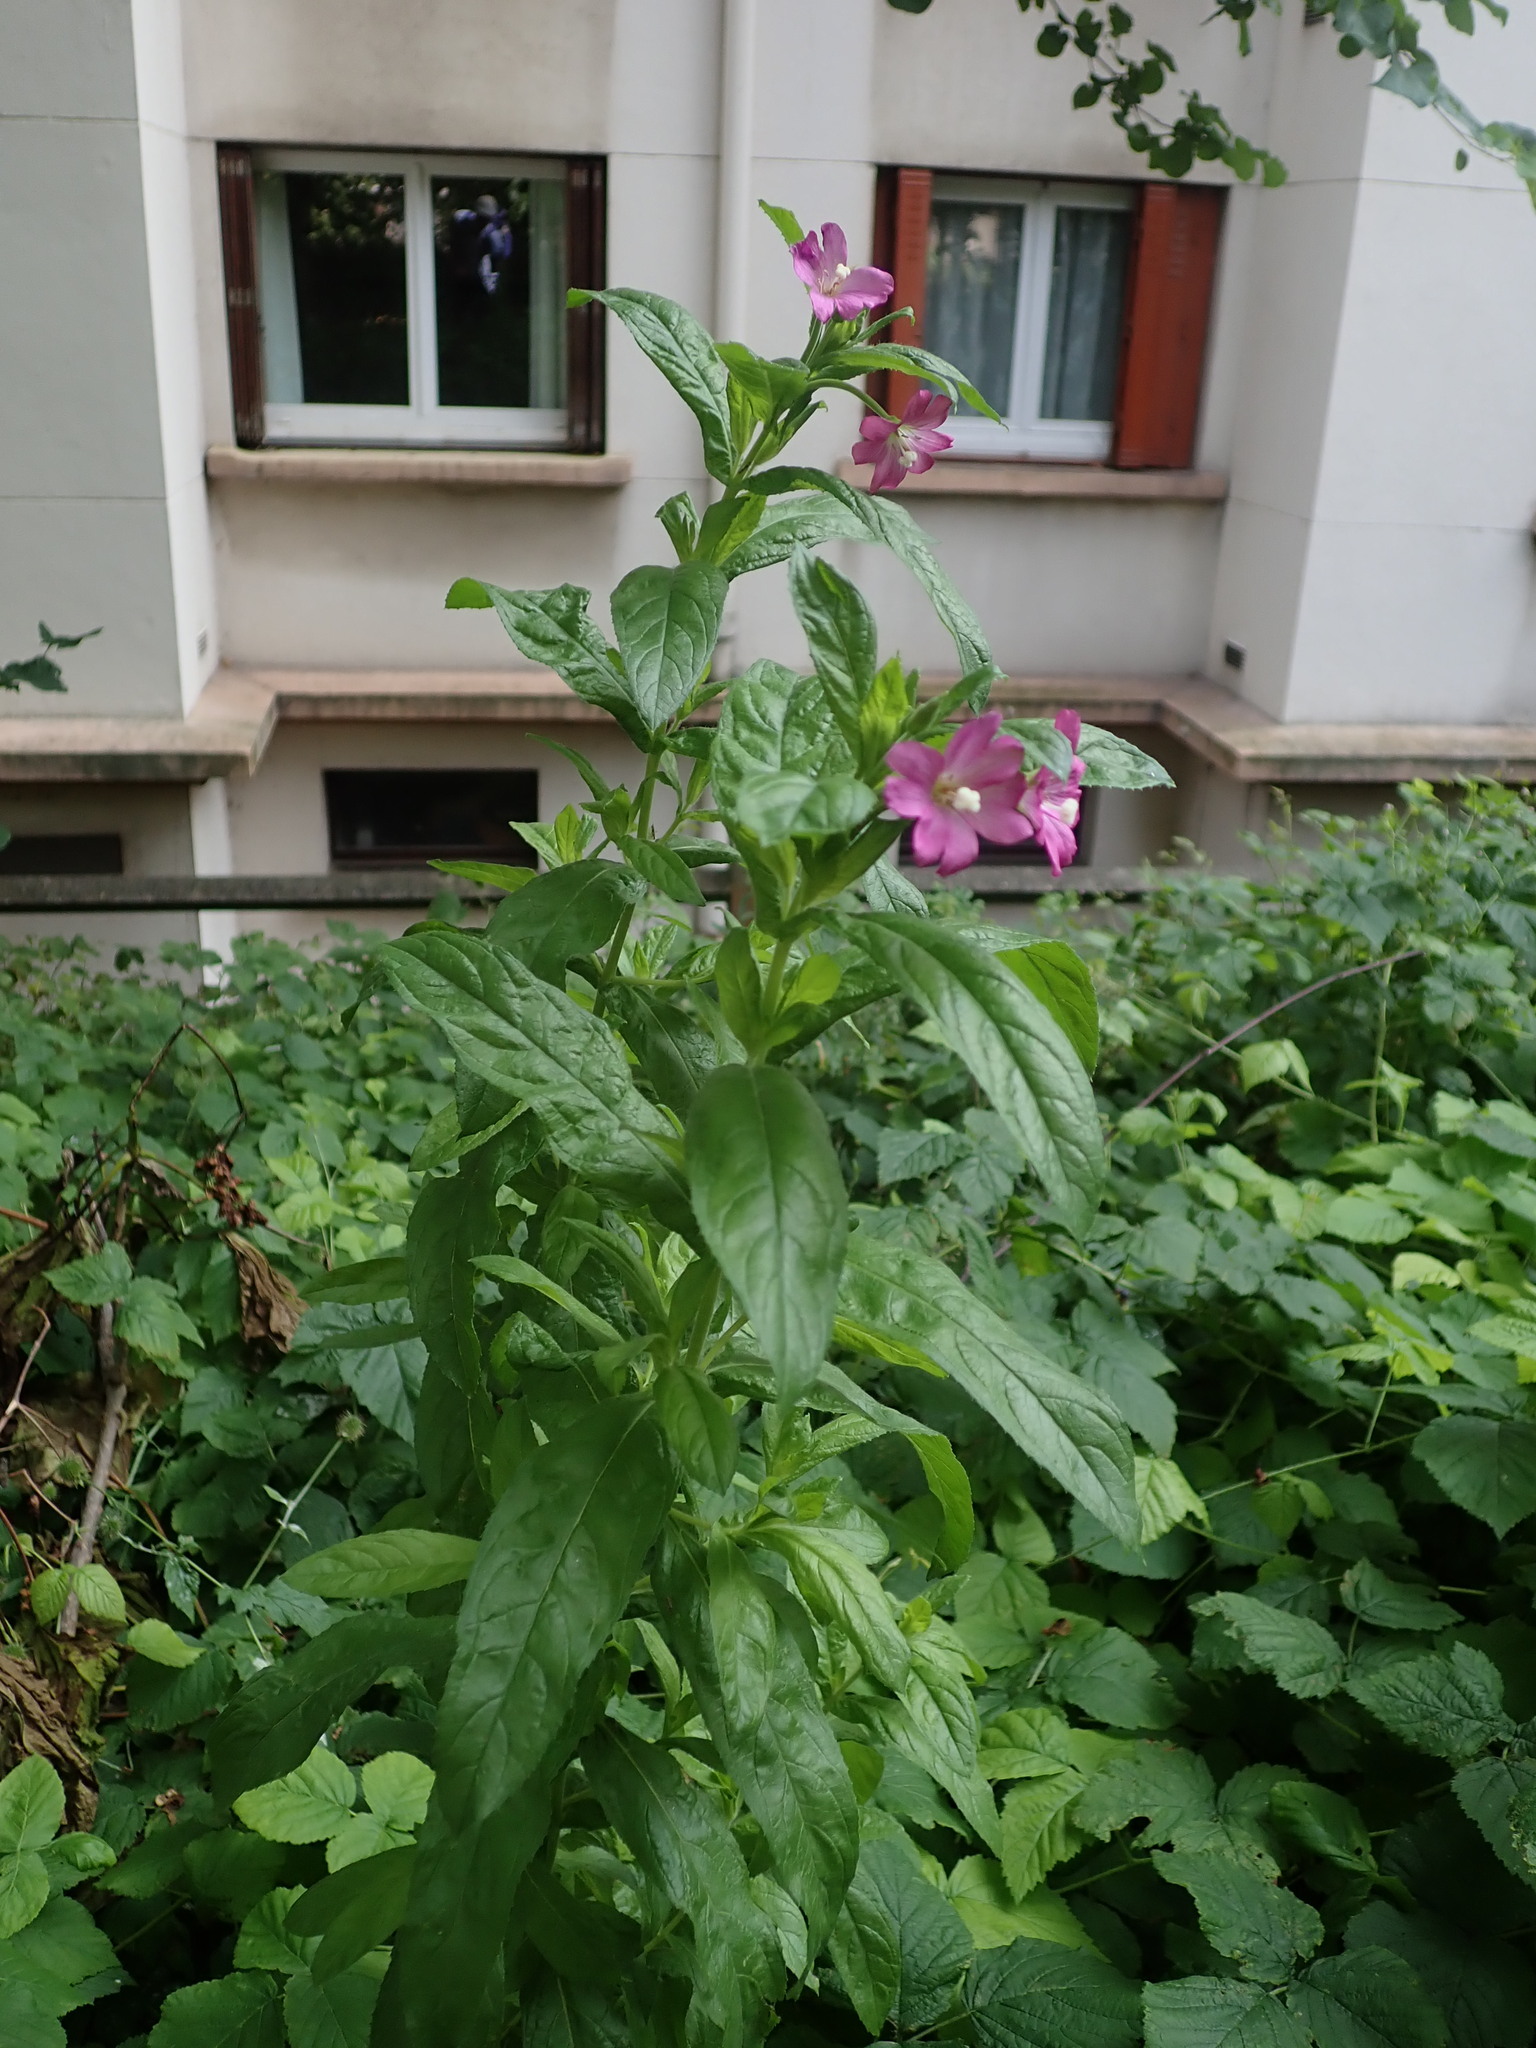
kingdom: Plantae
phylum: Tracheophyta
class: Magnoliopsida
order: Myrtales
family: Onagraceae
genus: Epilobium
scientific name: Epilobium hirsutum
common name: Great willowherb
